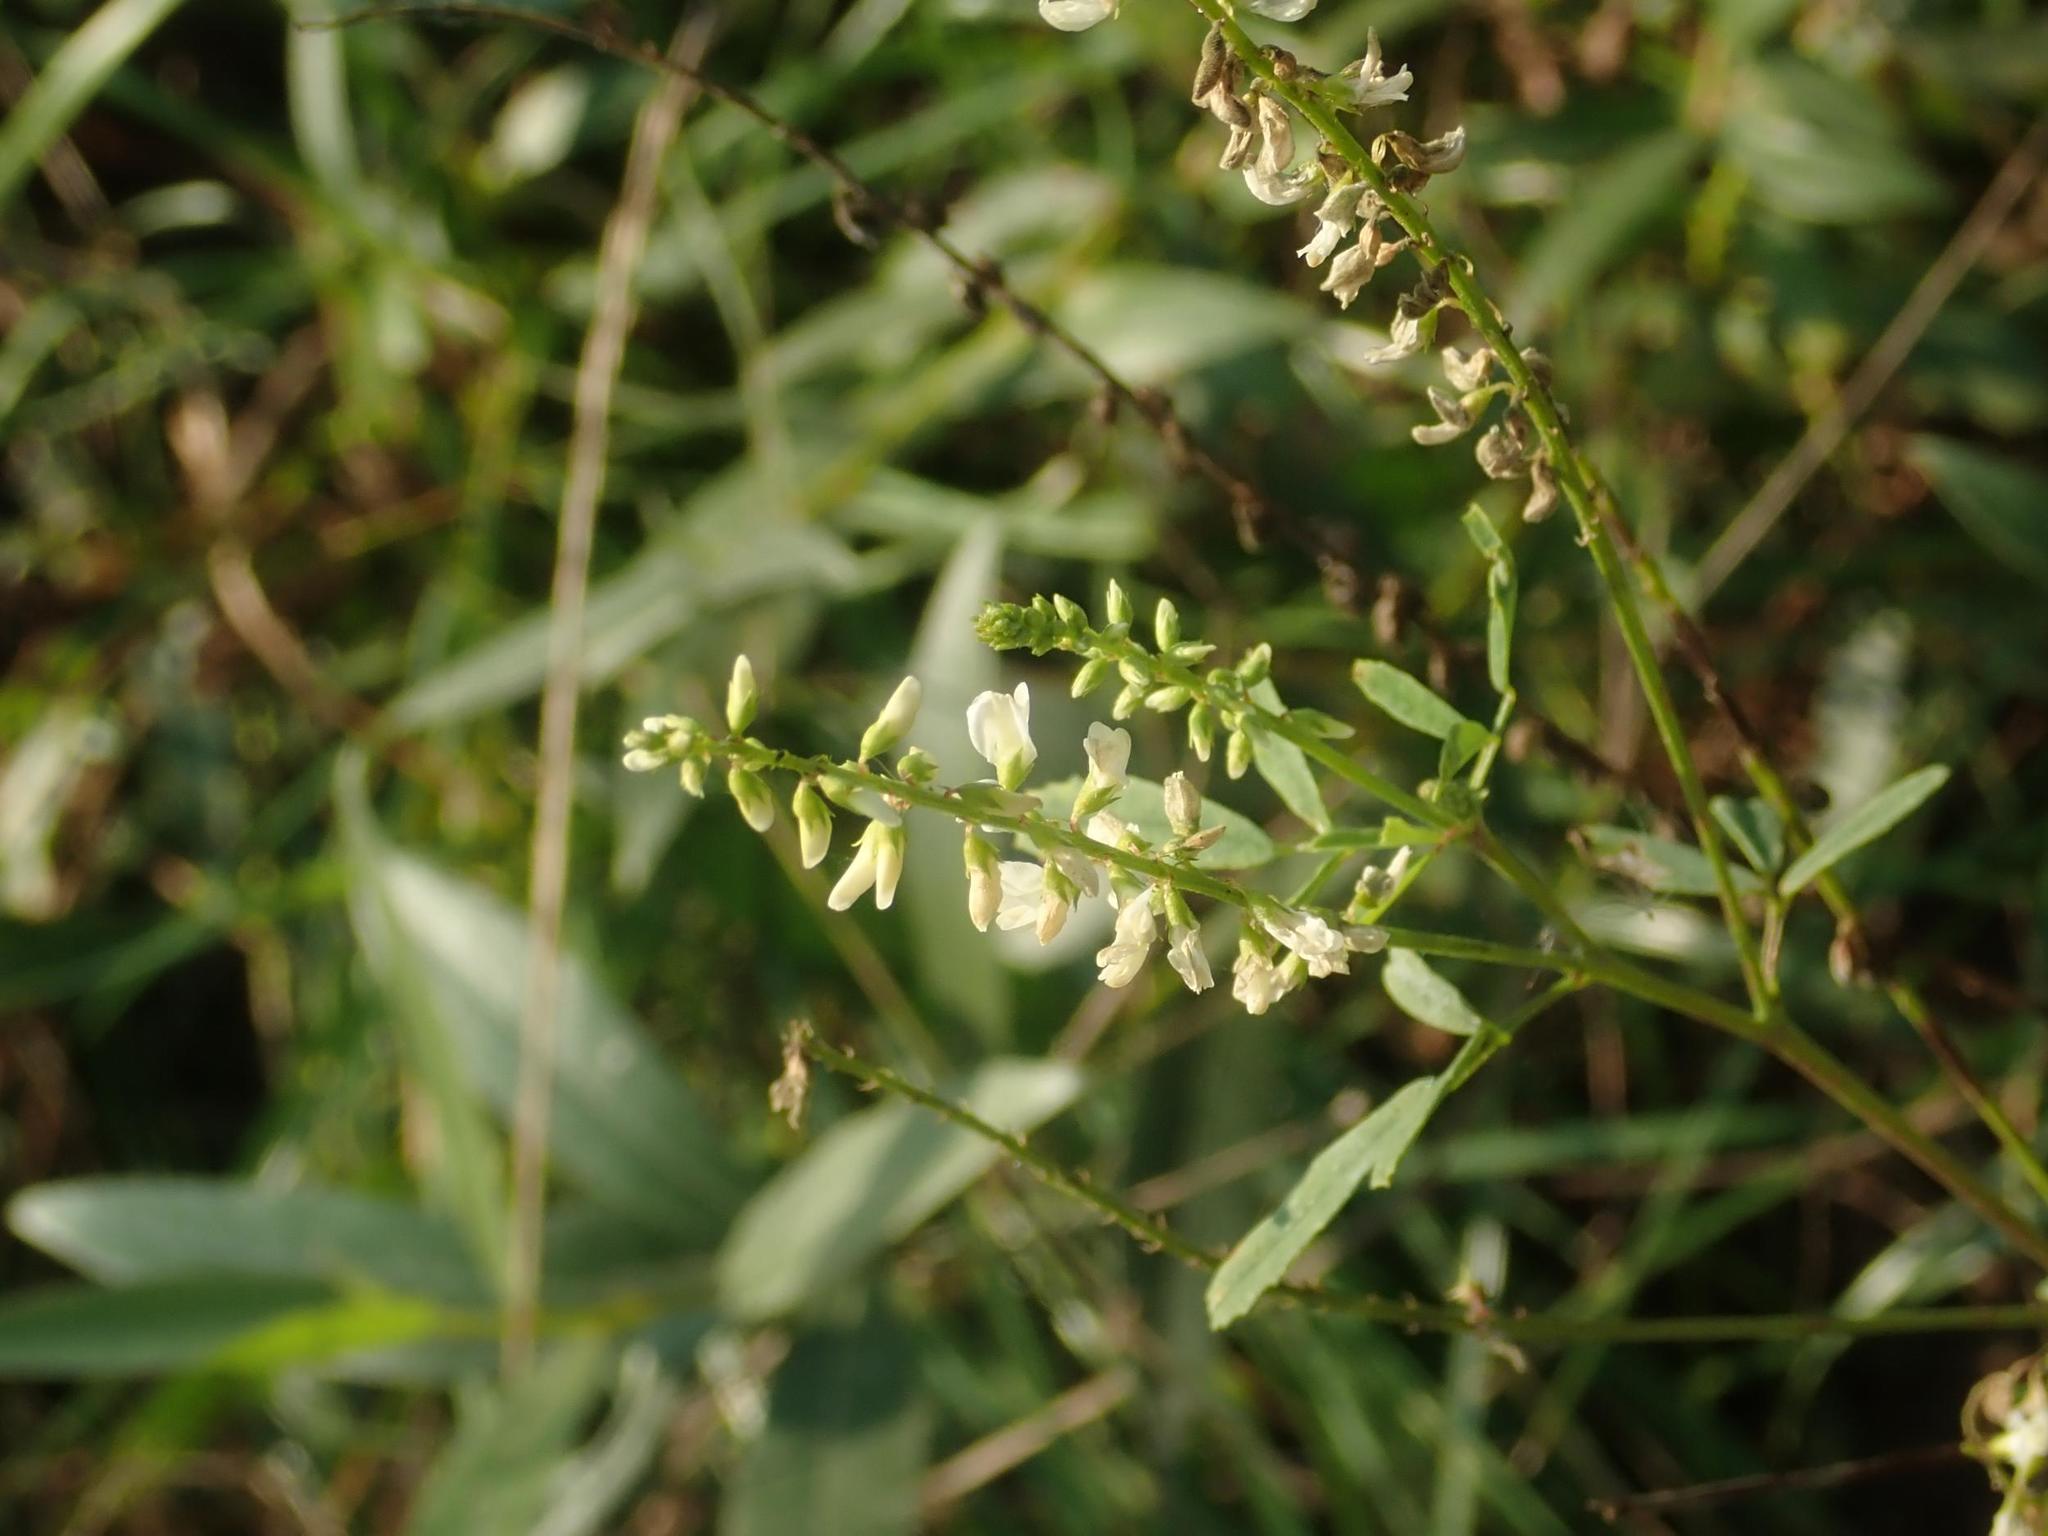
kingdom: Plantae
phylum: Tracheophyta
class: Magnoliopsida
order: Fabales
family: Fabaceae
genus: Melilotus
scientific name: Melilotus albus
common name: White melilot
